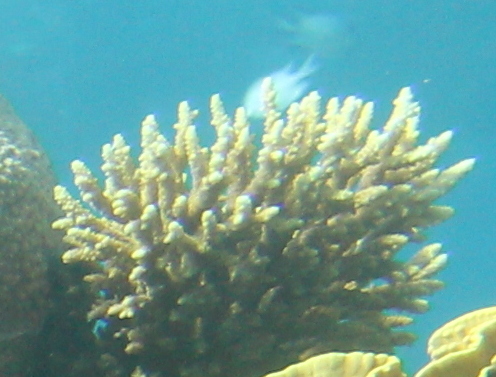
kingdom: Animalia
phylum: Cnidaria
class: Anthozoa
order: Scleractinia
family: Acroporidae
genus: Acropora
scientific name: Acropora hemprichii
